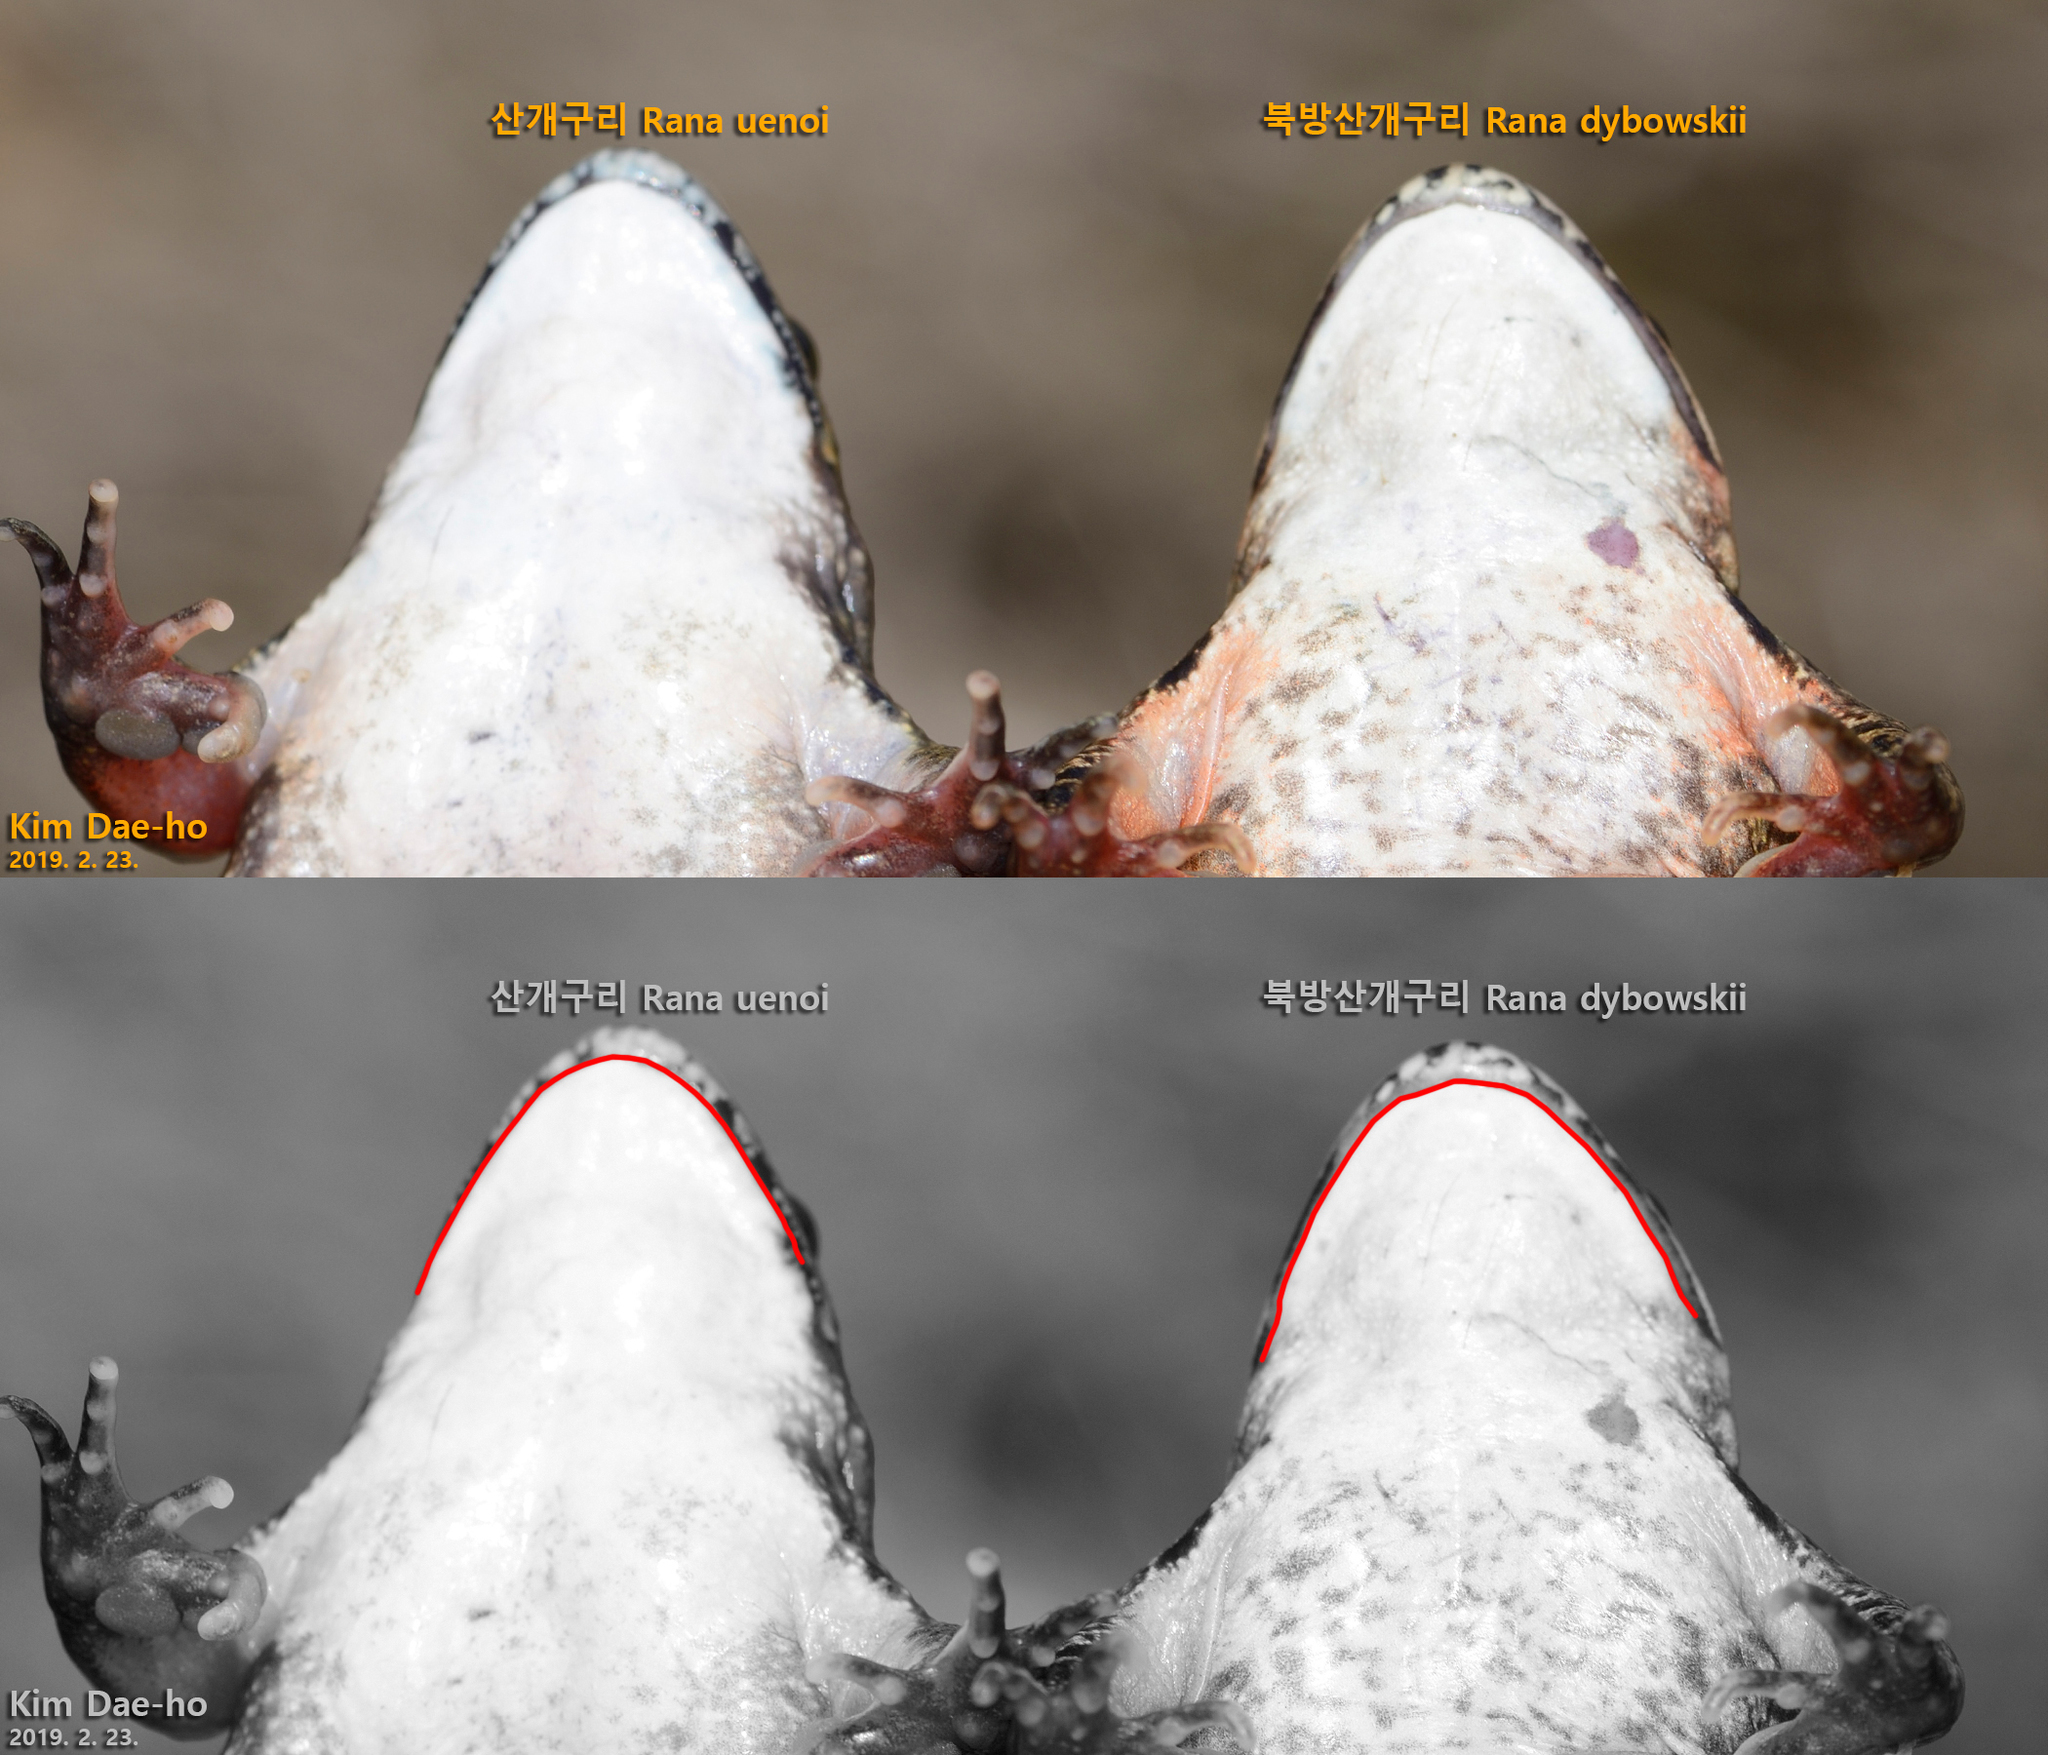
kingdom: Animalia
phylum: Chordata
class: Amphibia
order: Anura
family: Ranidae
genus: Rana
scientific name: Rana uenoi
